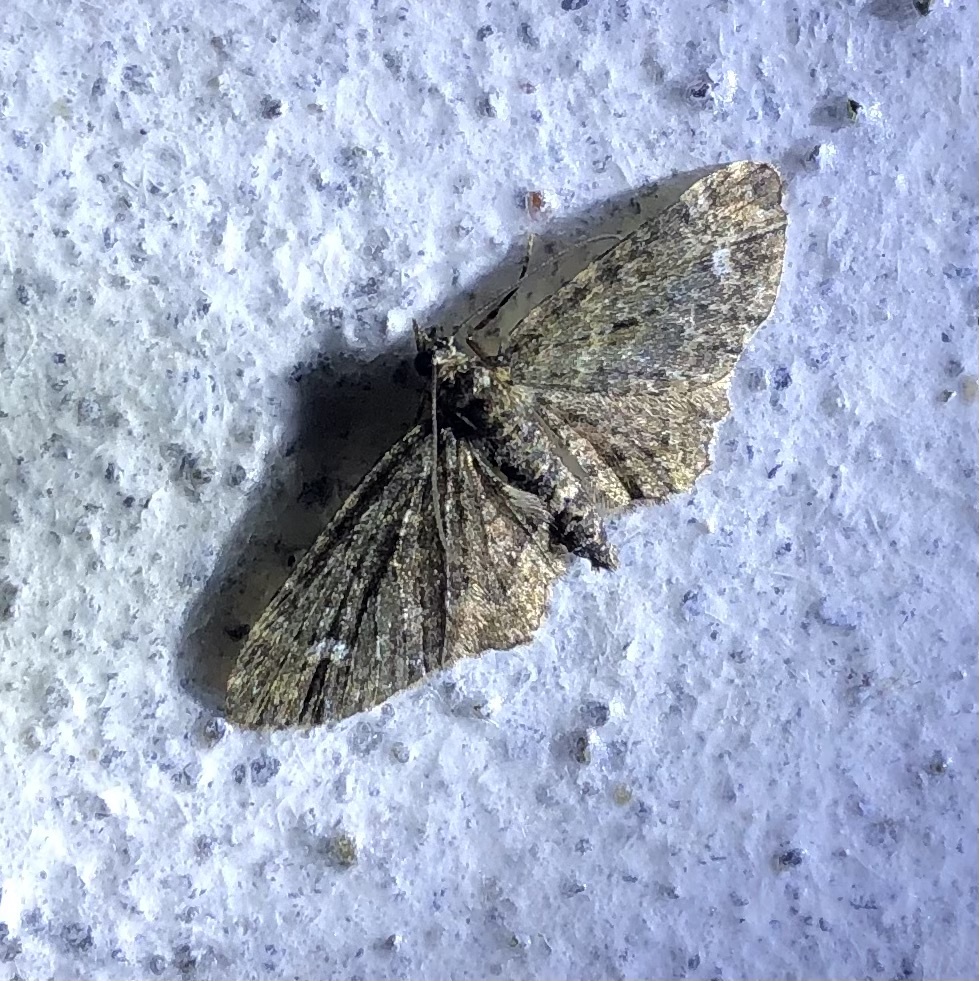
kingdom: Animalia
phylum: Arthropoda
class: Insecta
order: Lepidoptera
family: Geometridae
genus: Pasiphilodes
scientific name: Pasiphilodes testulata
